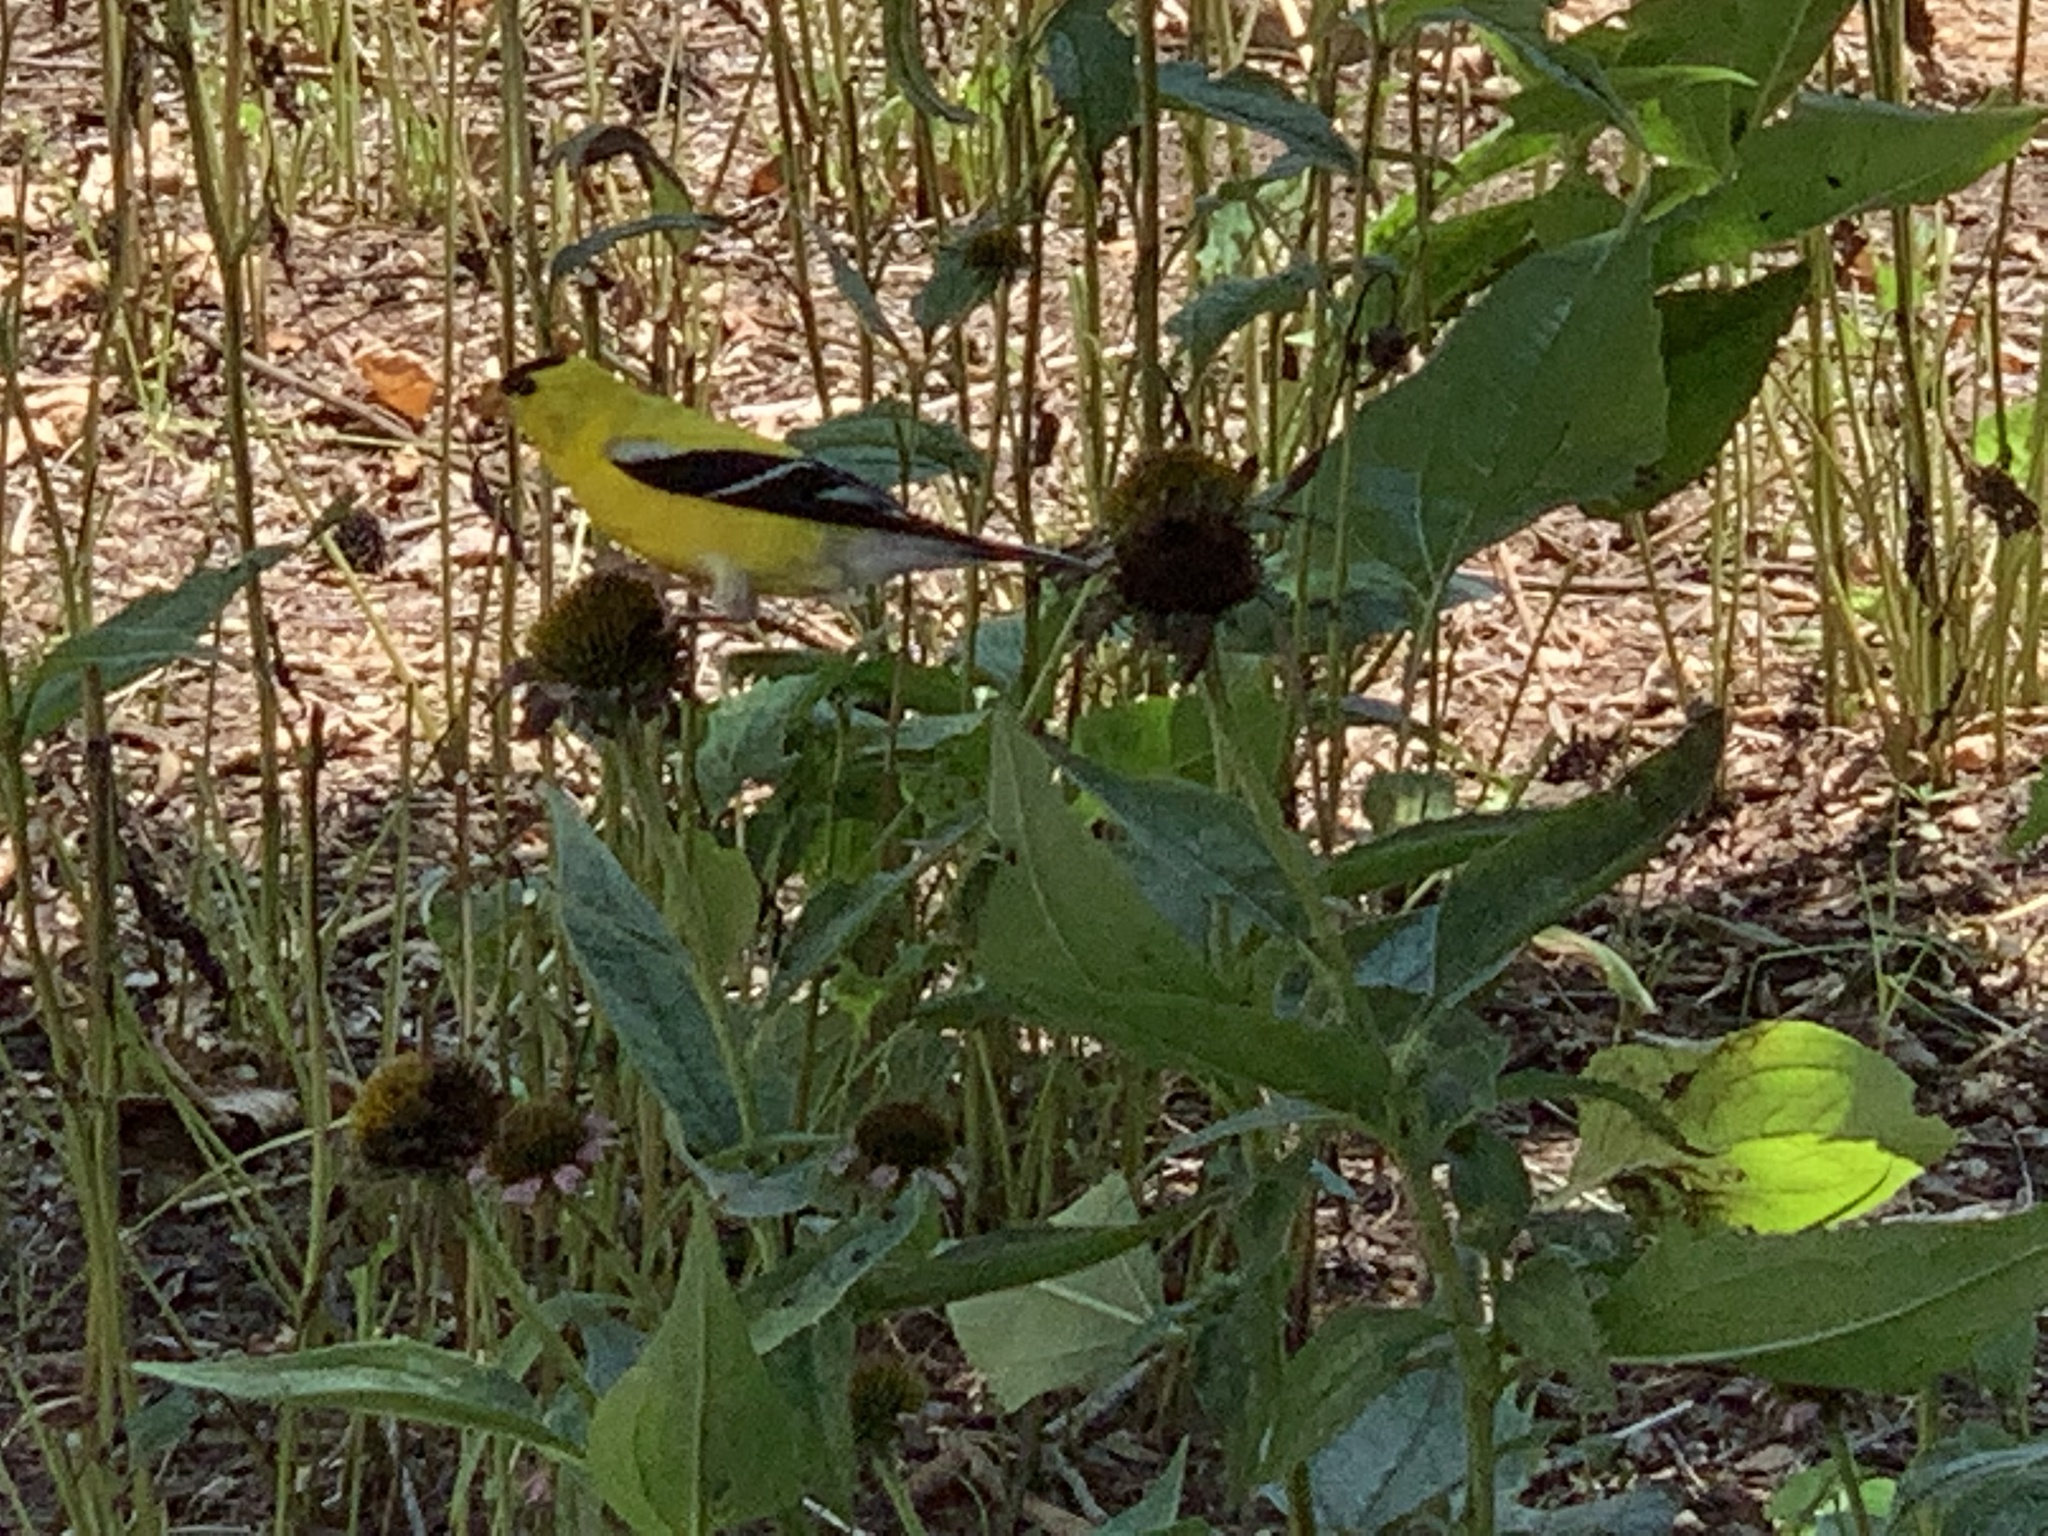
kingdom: Animalia
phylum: Chordata
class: Aves
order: Passeriformes
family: Fringillidae
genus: Spinus
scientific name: Spinus tristis
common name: American goldfinch
